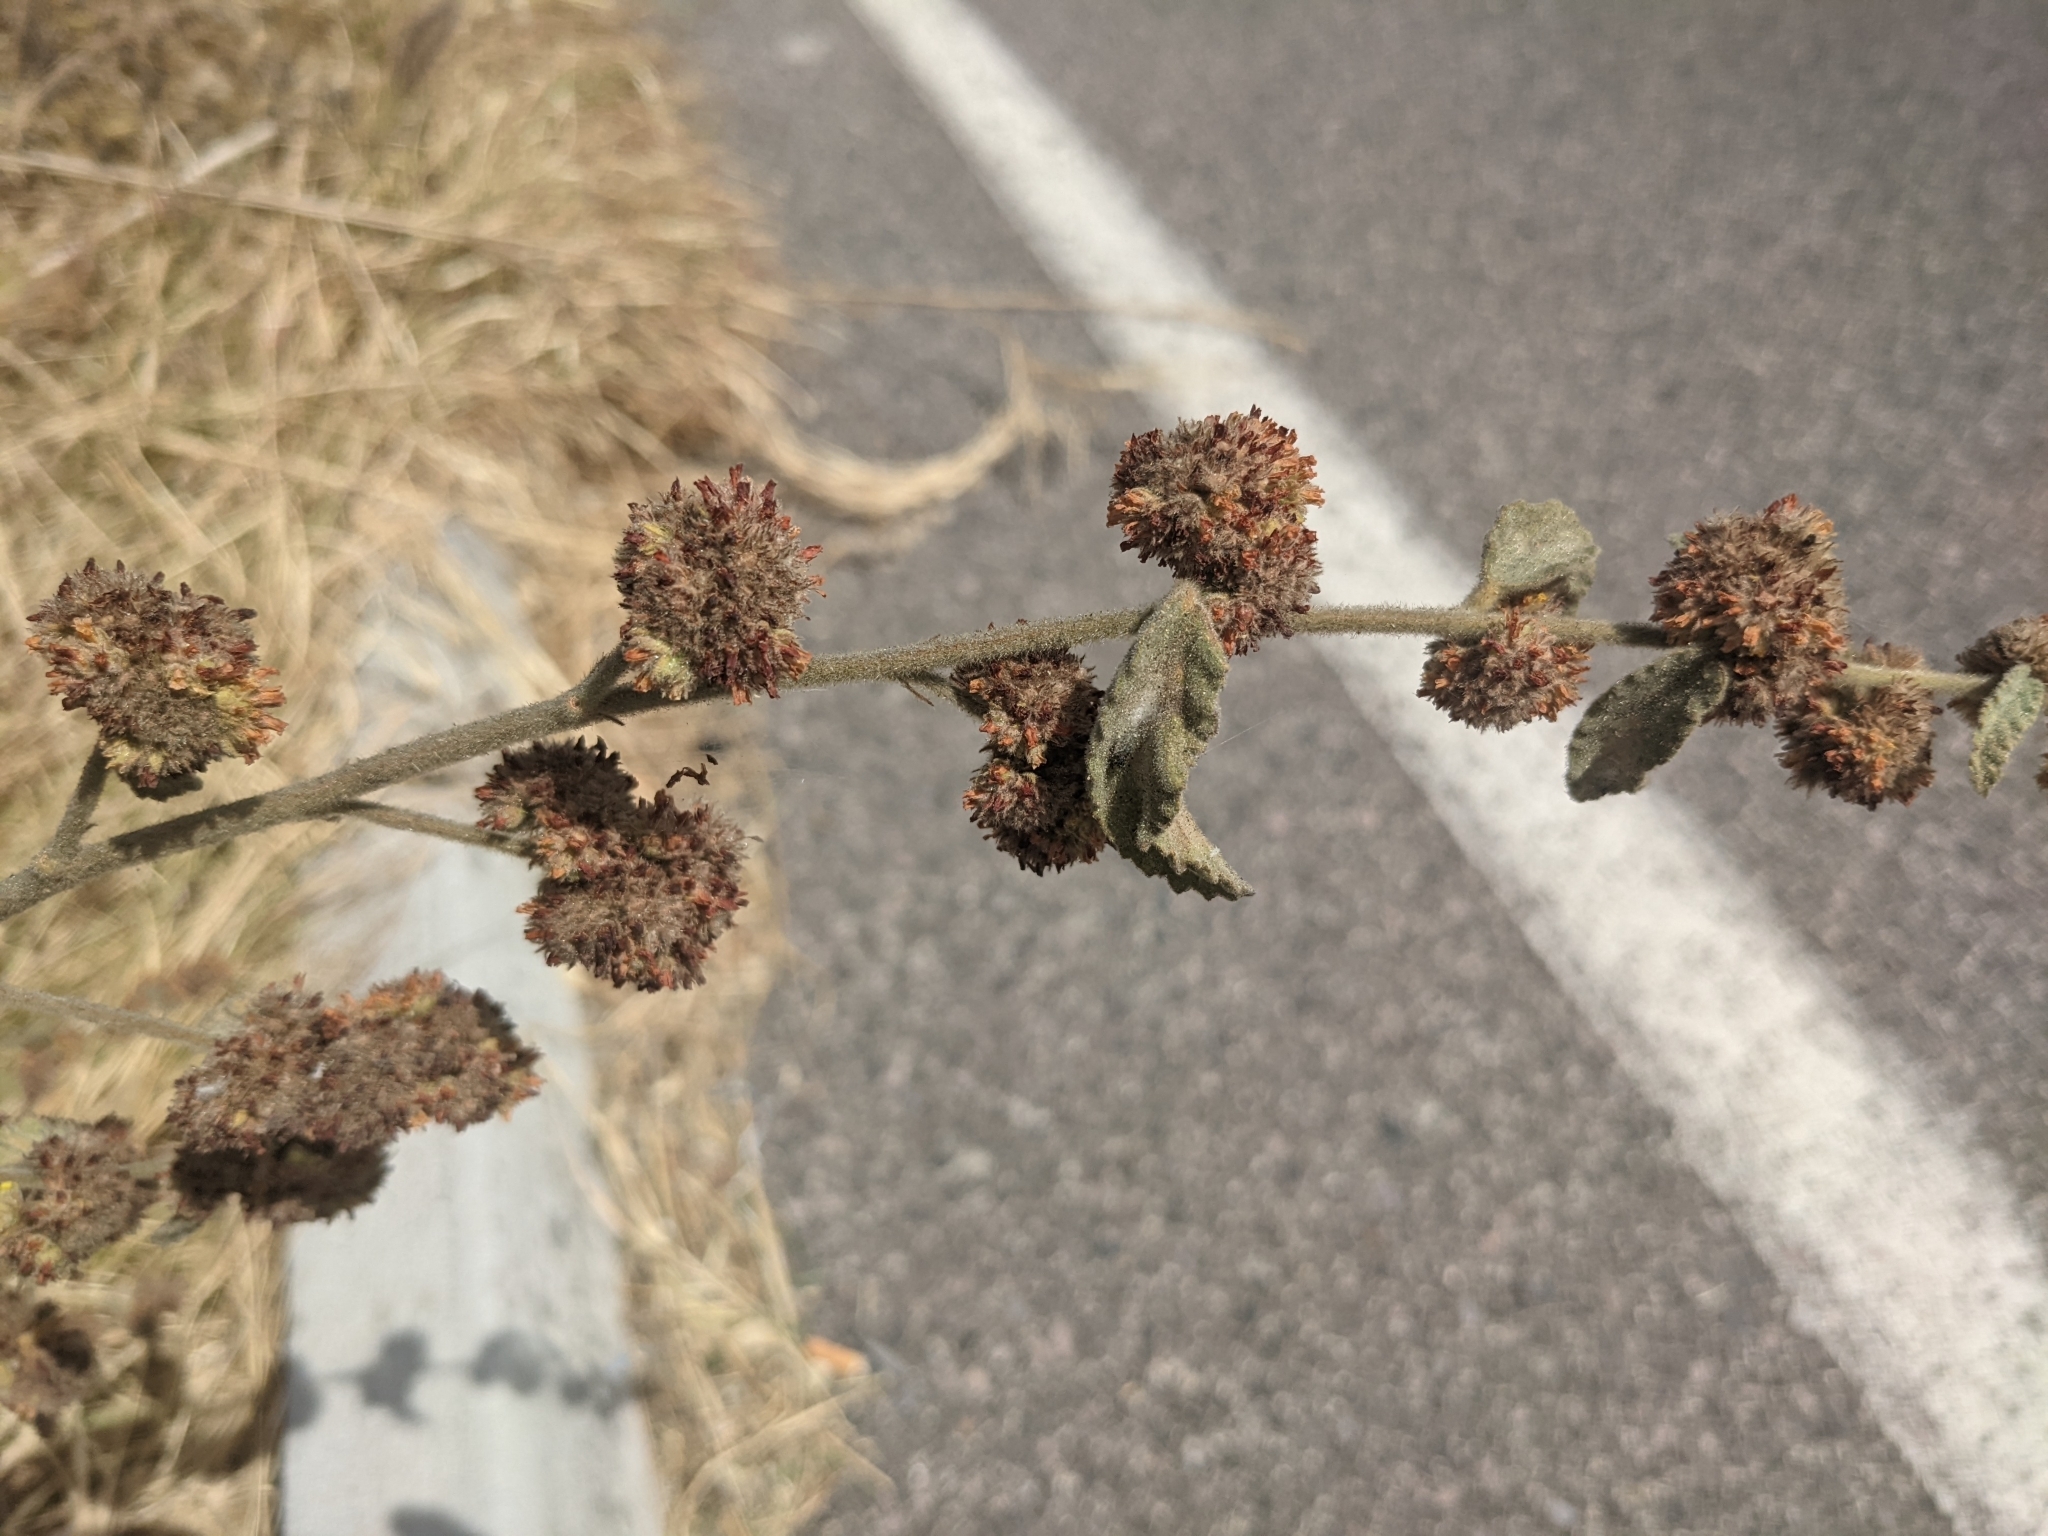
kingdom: Plantae
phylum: Tracheophyta
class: Magnoliopsida
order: Malvales
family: Malvaceae
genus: Waltheria
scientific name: Waltheria indica
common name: Leather-coat
